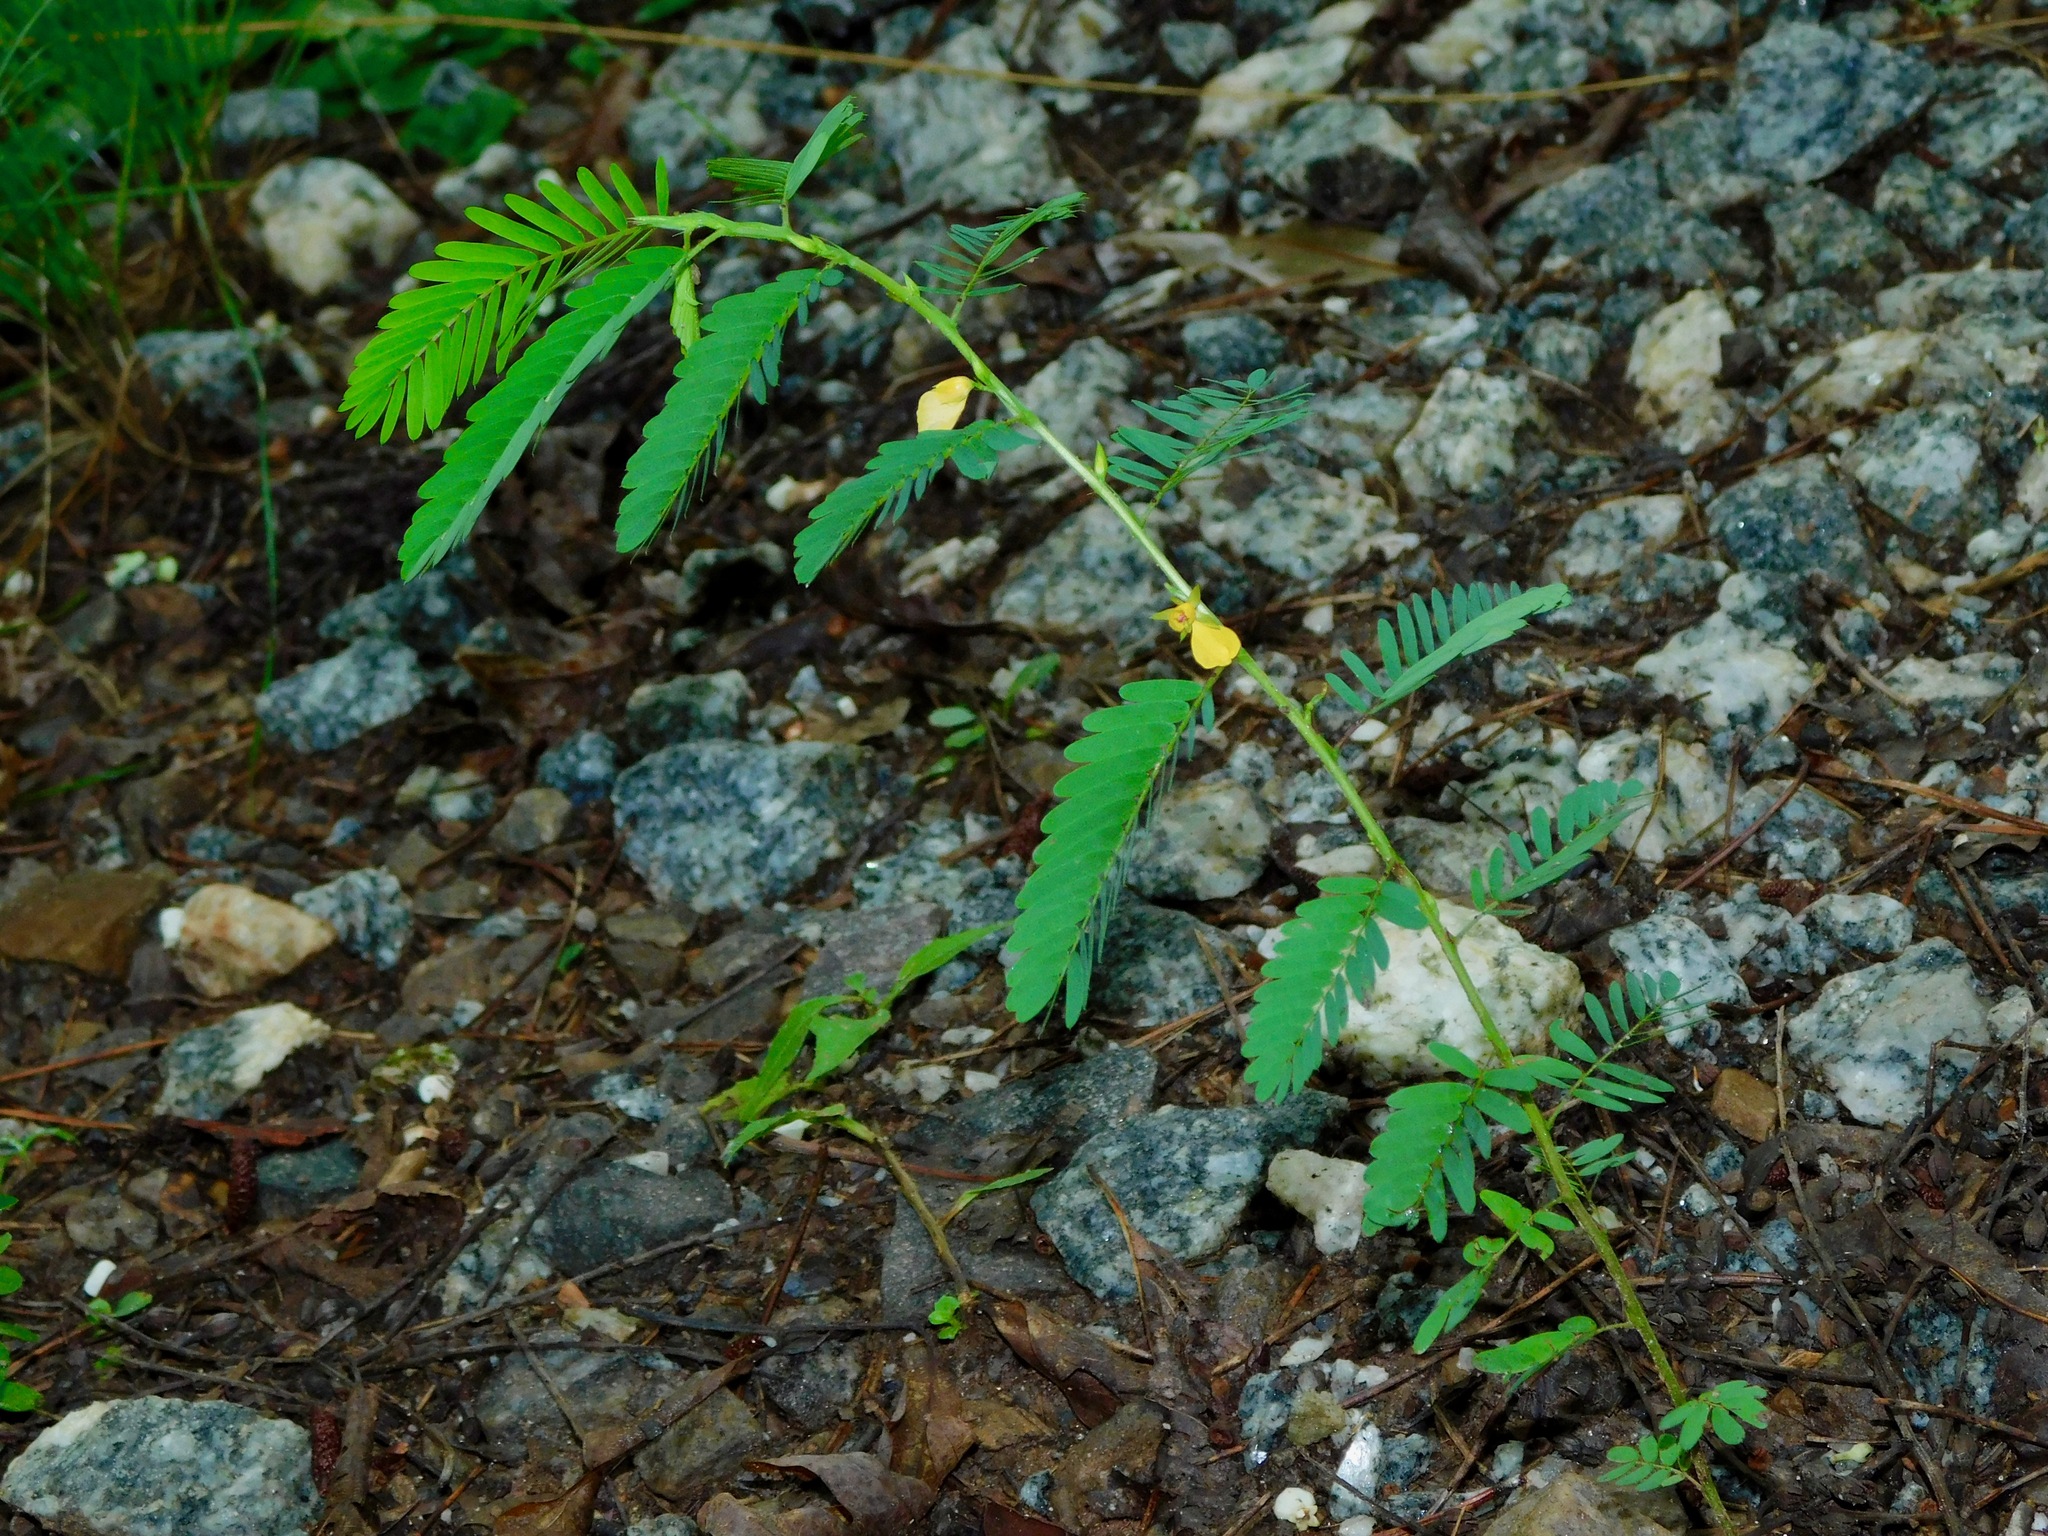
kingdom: Plantae
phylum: Tracheophyta
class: Magnoliopsida
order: Fabales
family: Fabaceae
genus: Chamaecrista
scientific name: Chamaecrista nictitans
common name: Sensitive cassia
